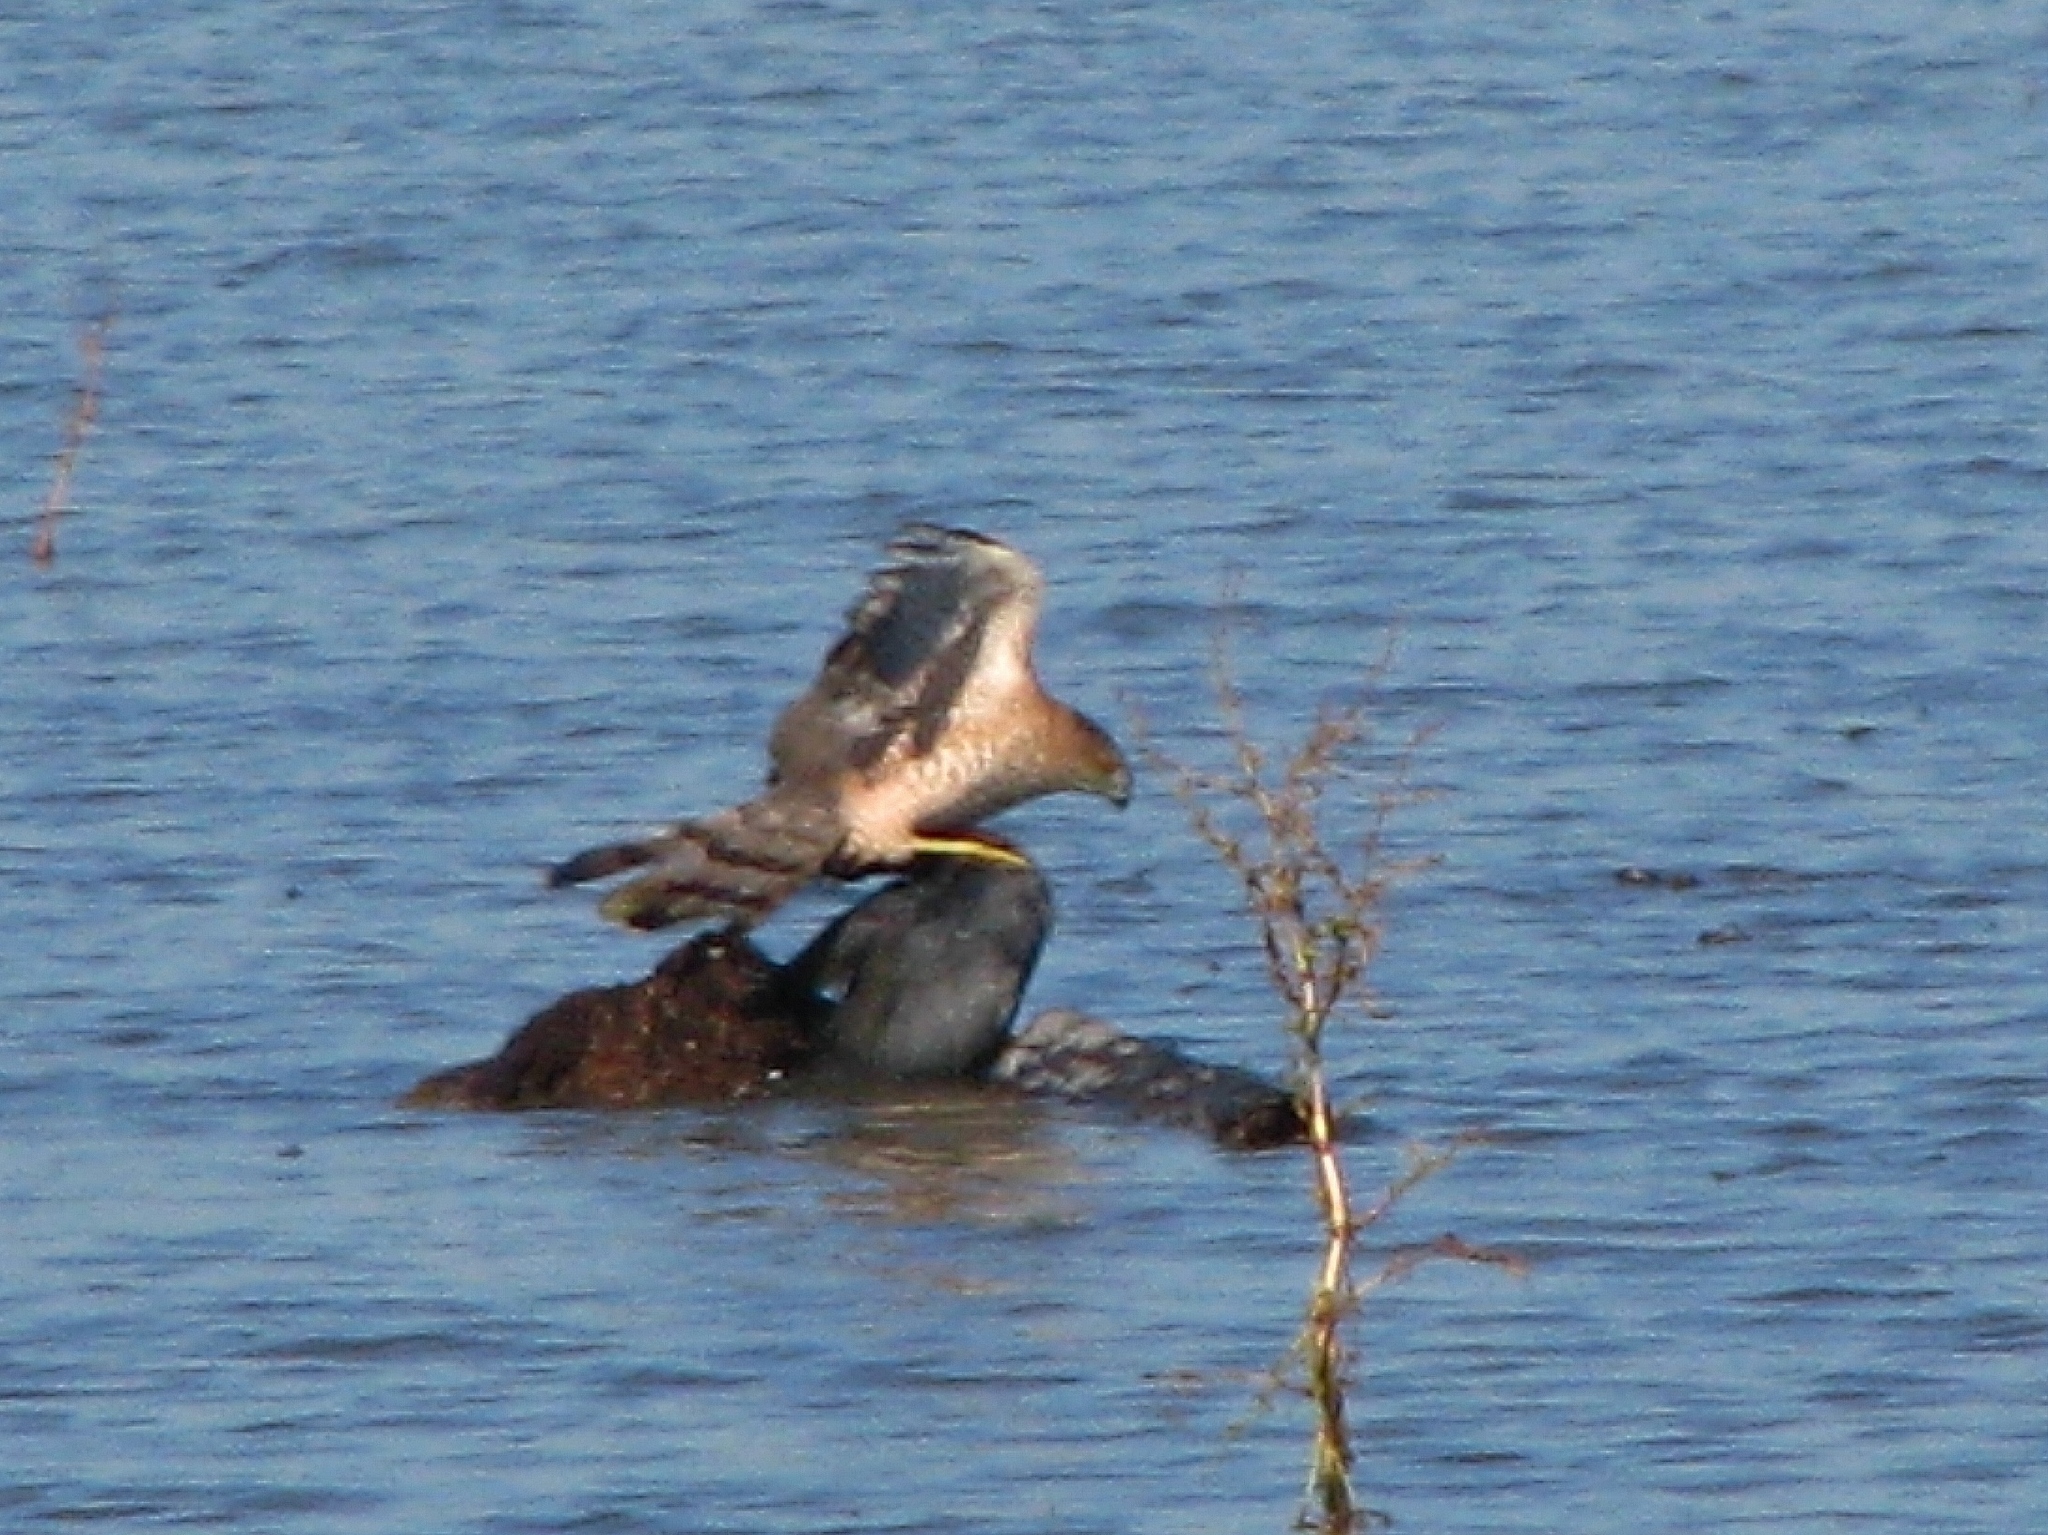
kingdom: Animalia
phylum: Chordata
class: Aves
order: Accipitriformes
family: Accipitridae
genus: Accipiter
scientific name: Accipiter cooperii
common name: Cooper's hawk
